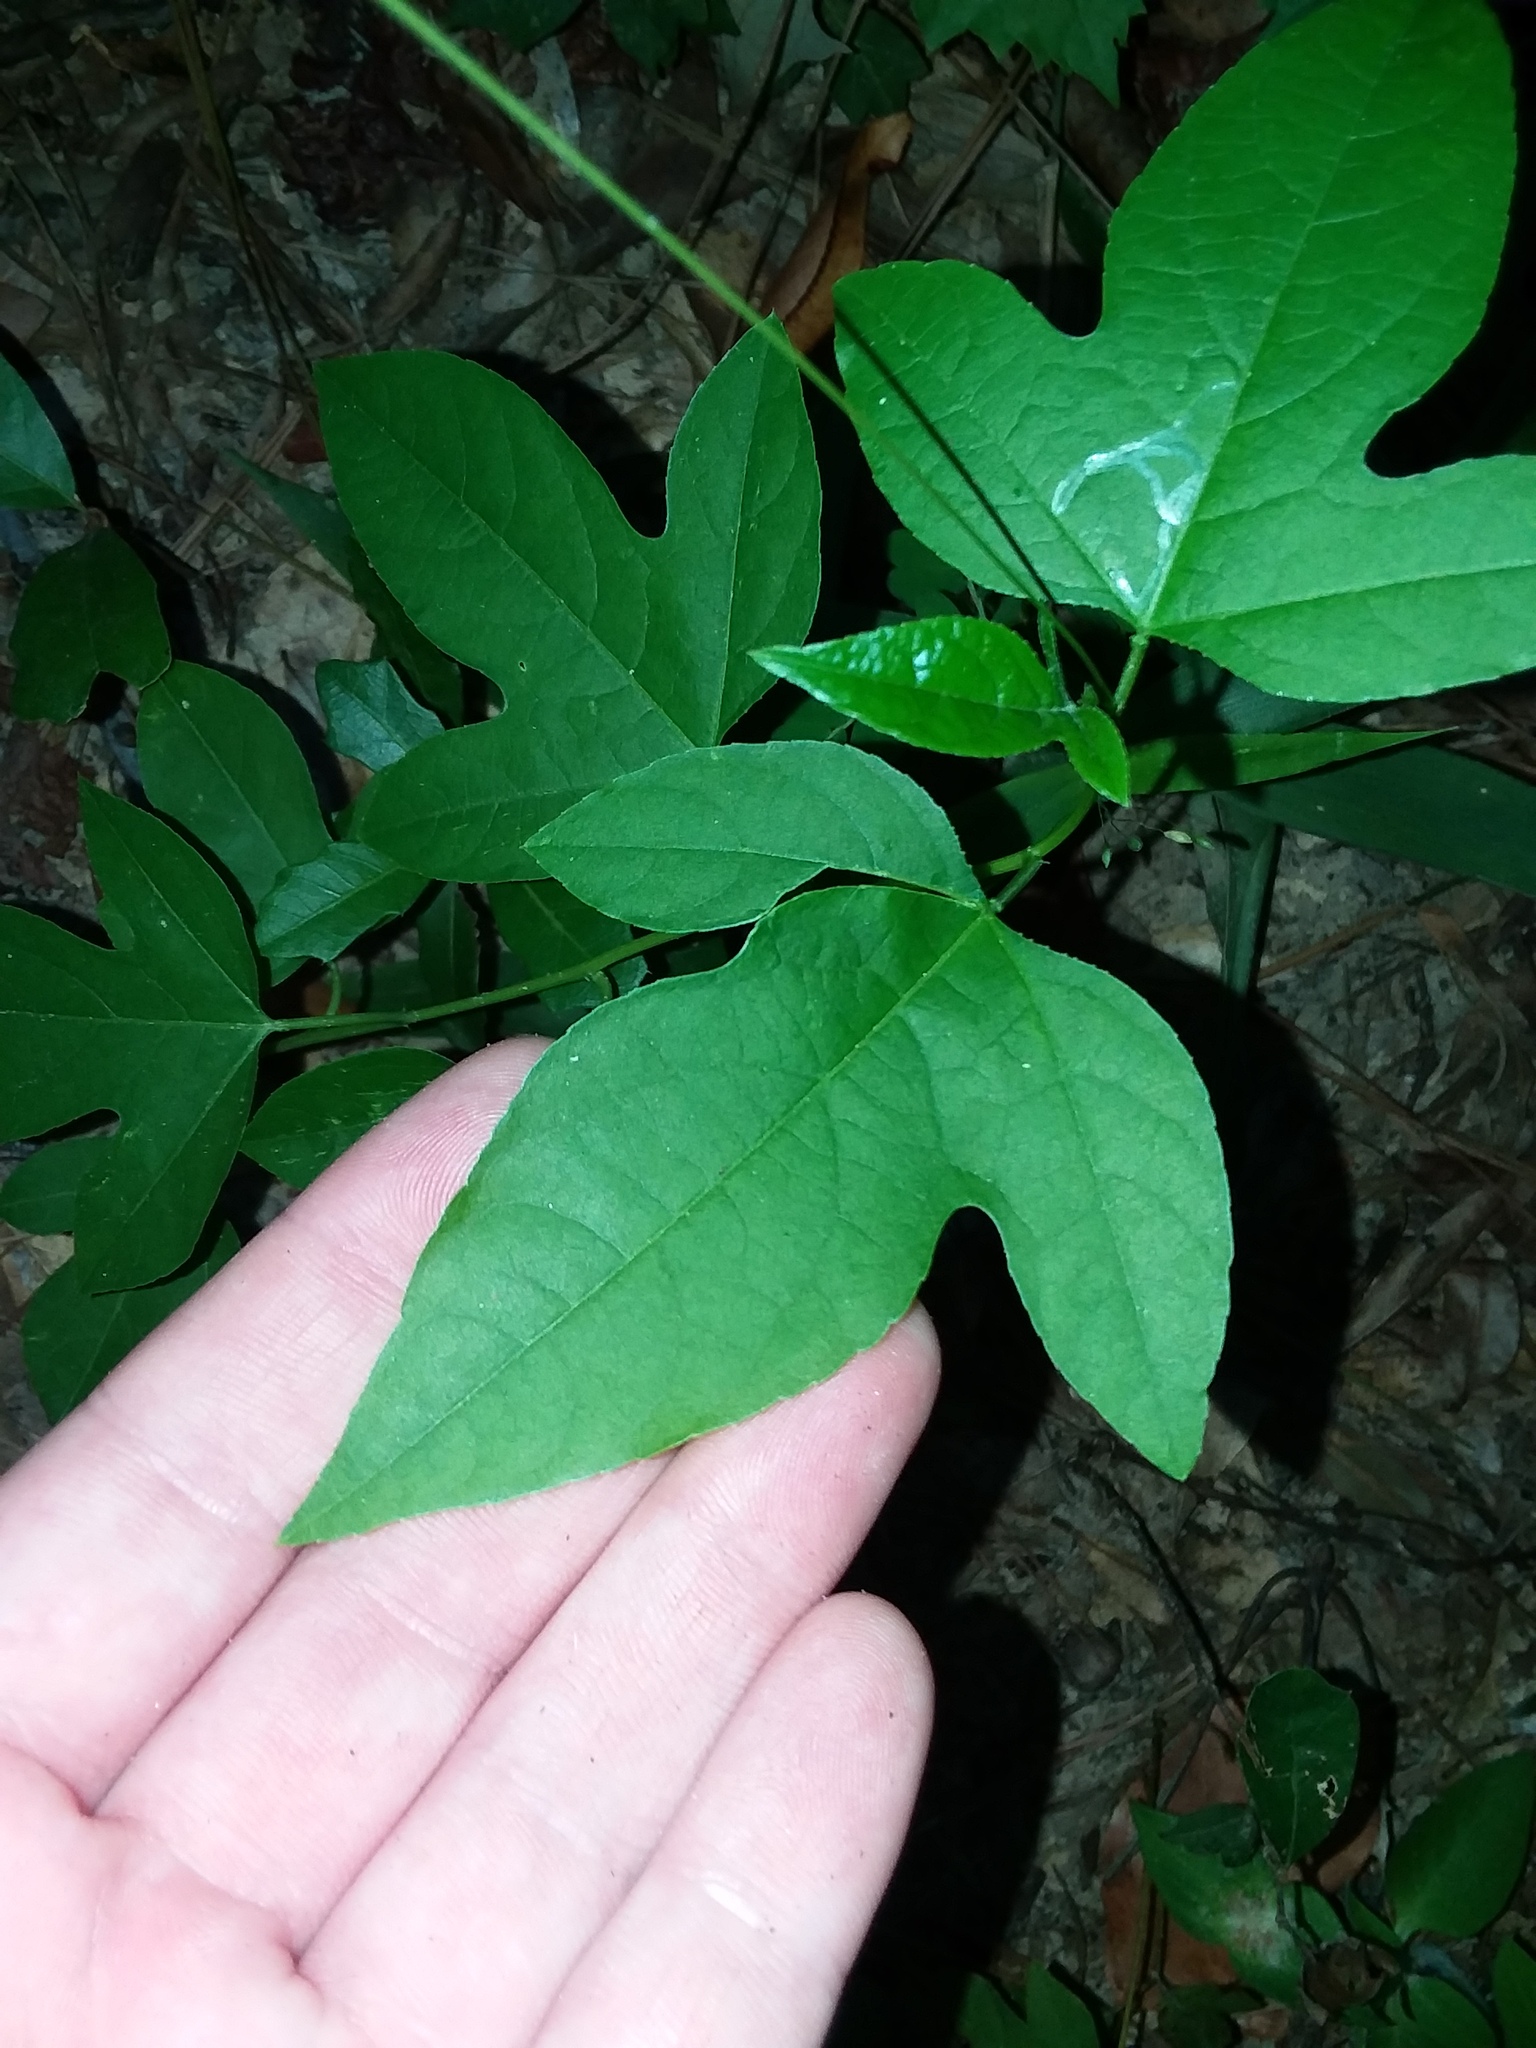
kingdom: Plantae
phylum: Tracheophyta
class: Magnoliopsida
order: Malpighiales
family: Passifloraceae
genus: Passiflora
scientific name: Passiflora incarnata
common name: Apricot-vine
